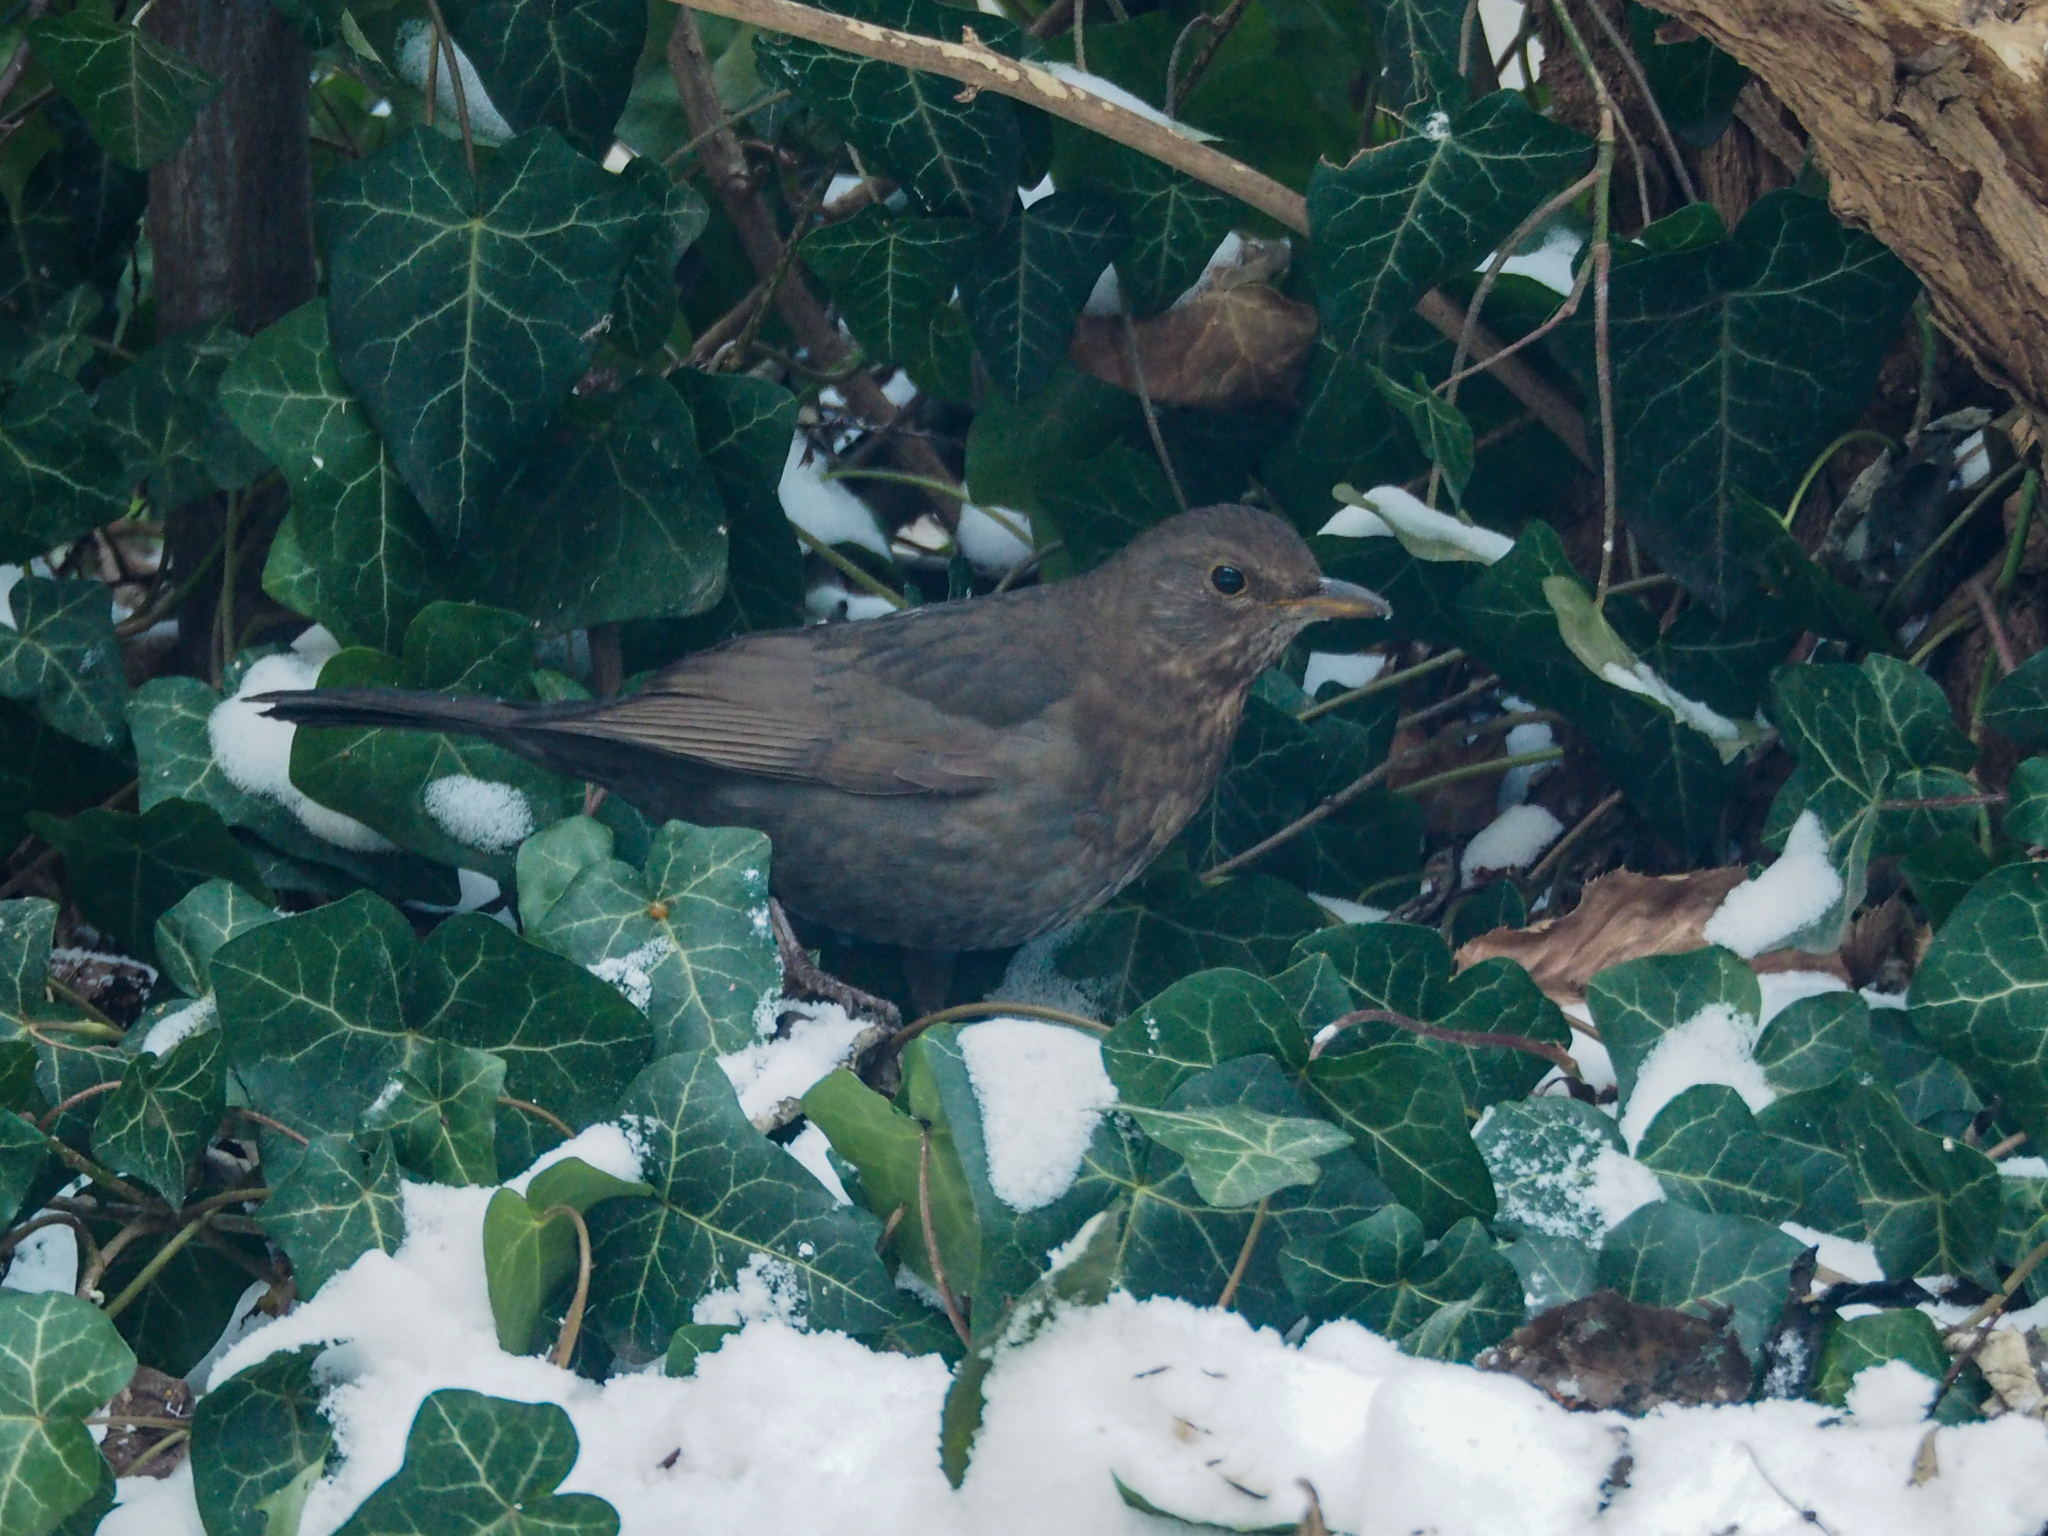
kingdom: Animalia
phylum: Chordata
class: Aves
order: Passeriformes
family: Turdidae
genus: Turdus
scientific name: Turdus merula
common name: Common blackbird
